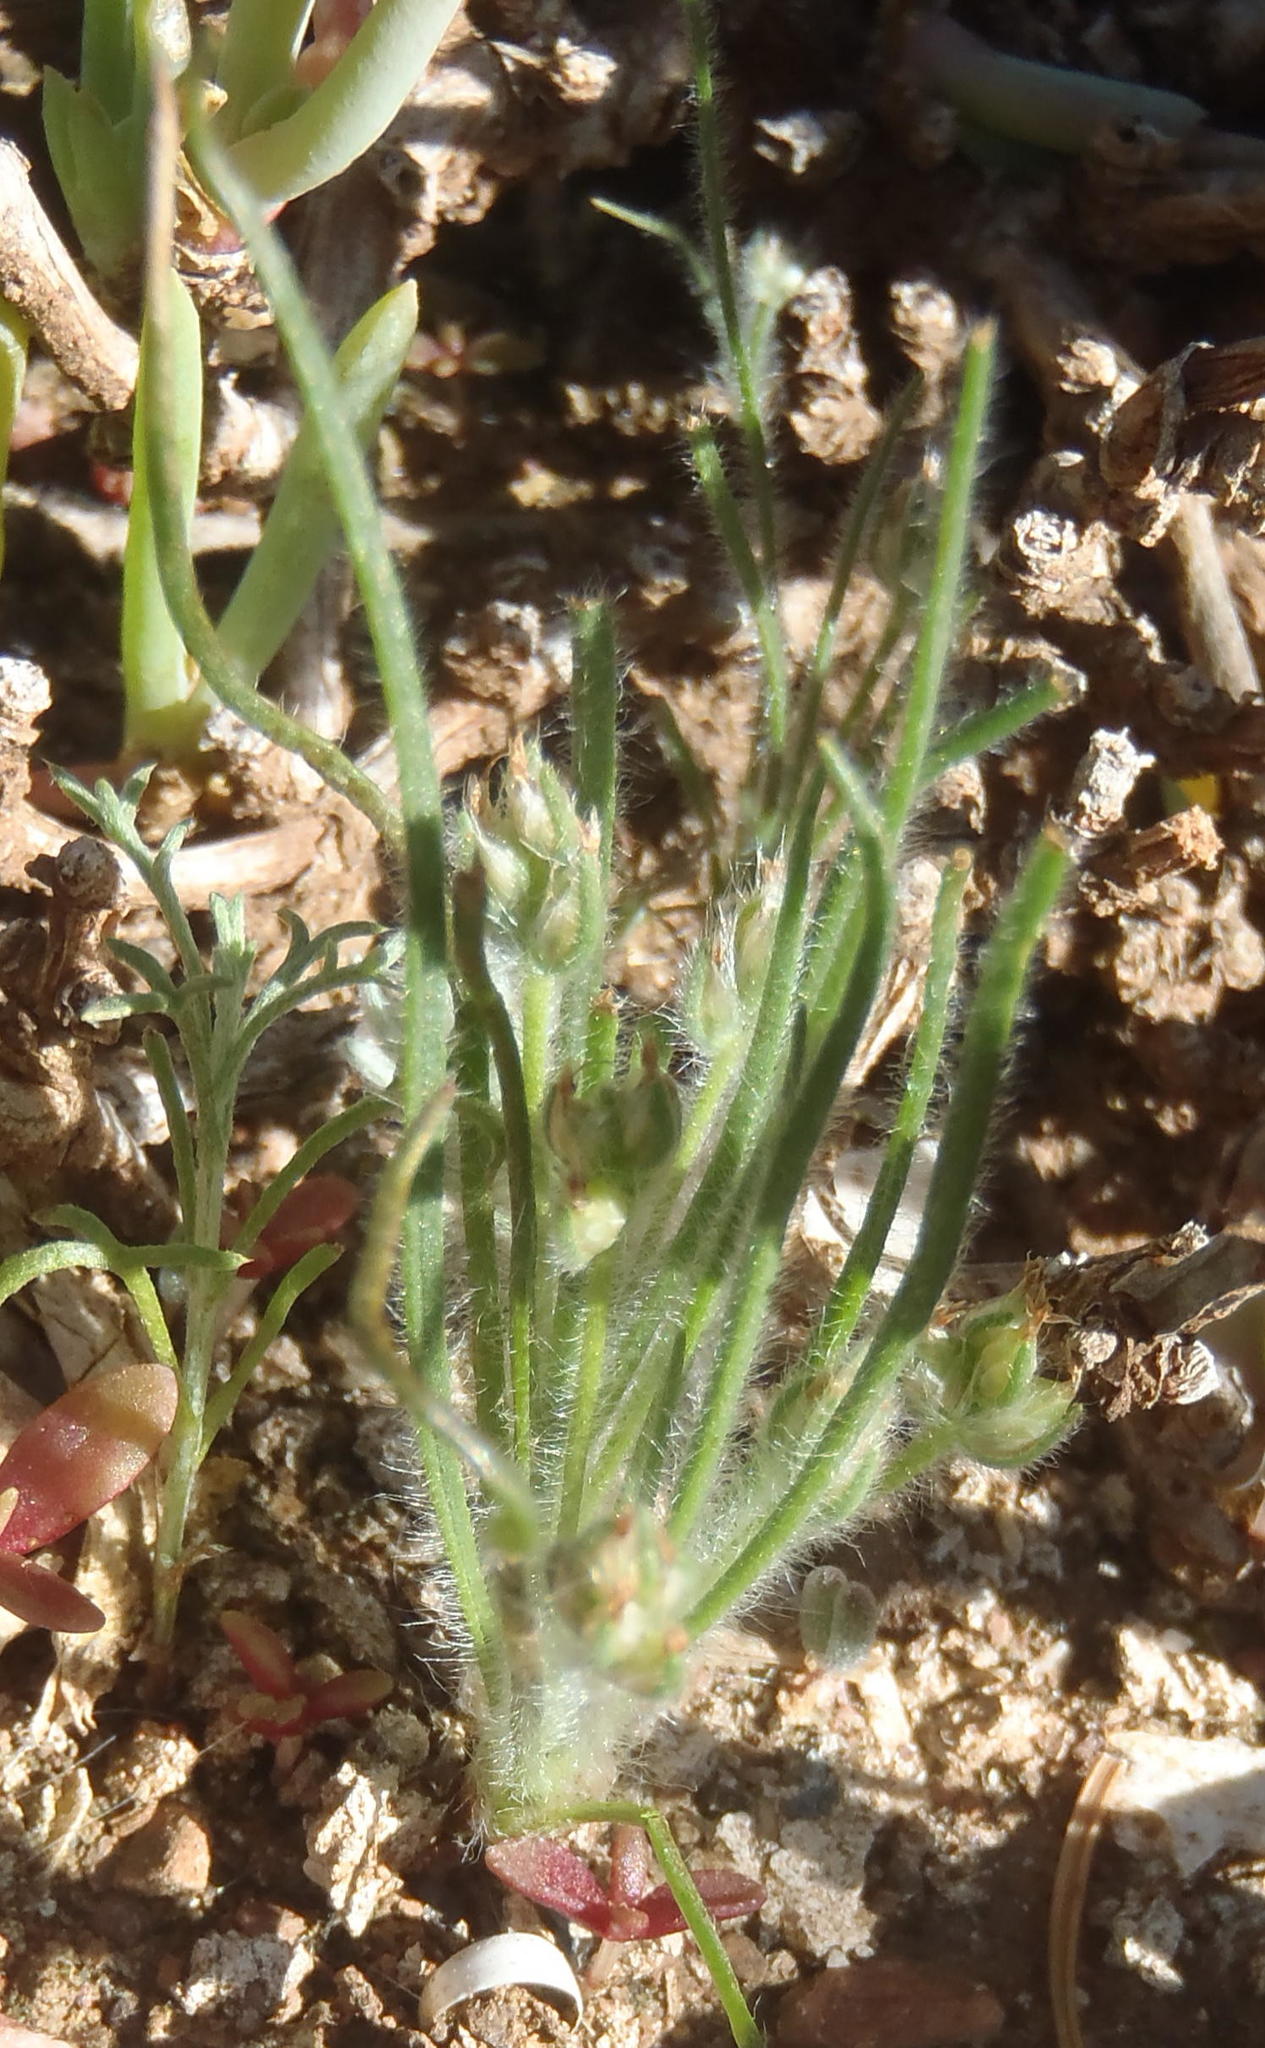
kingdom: Plantae
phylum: Tracheophyta
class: Magnoliopsida
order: Lamiales
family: Plantaginaceae
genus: Plantago
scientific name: Plantago cafra
